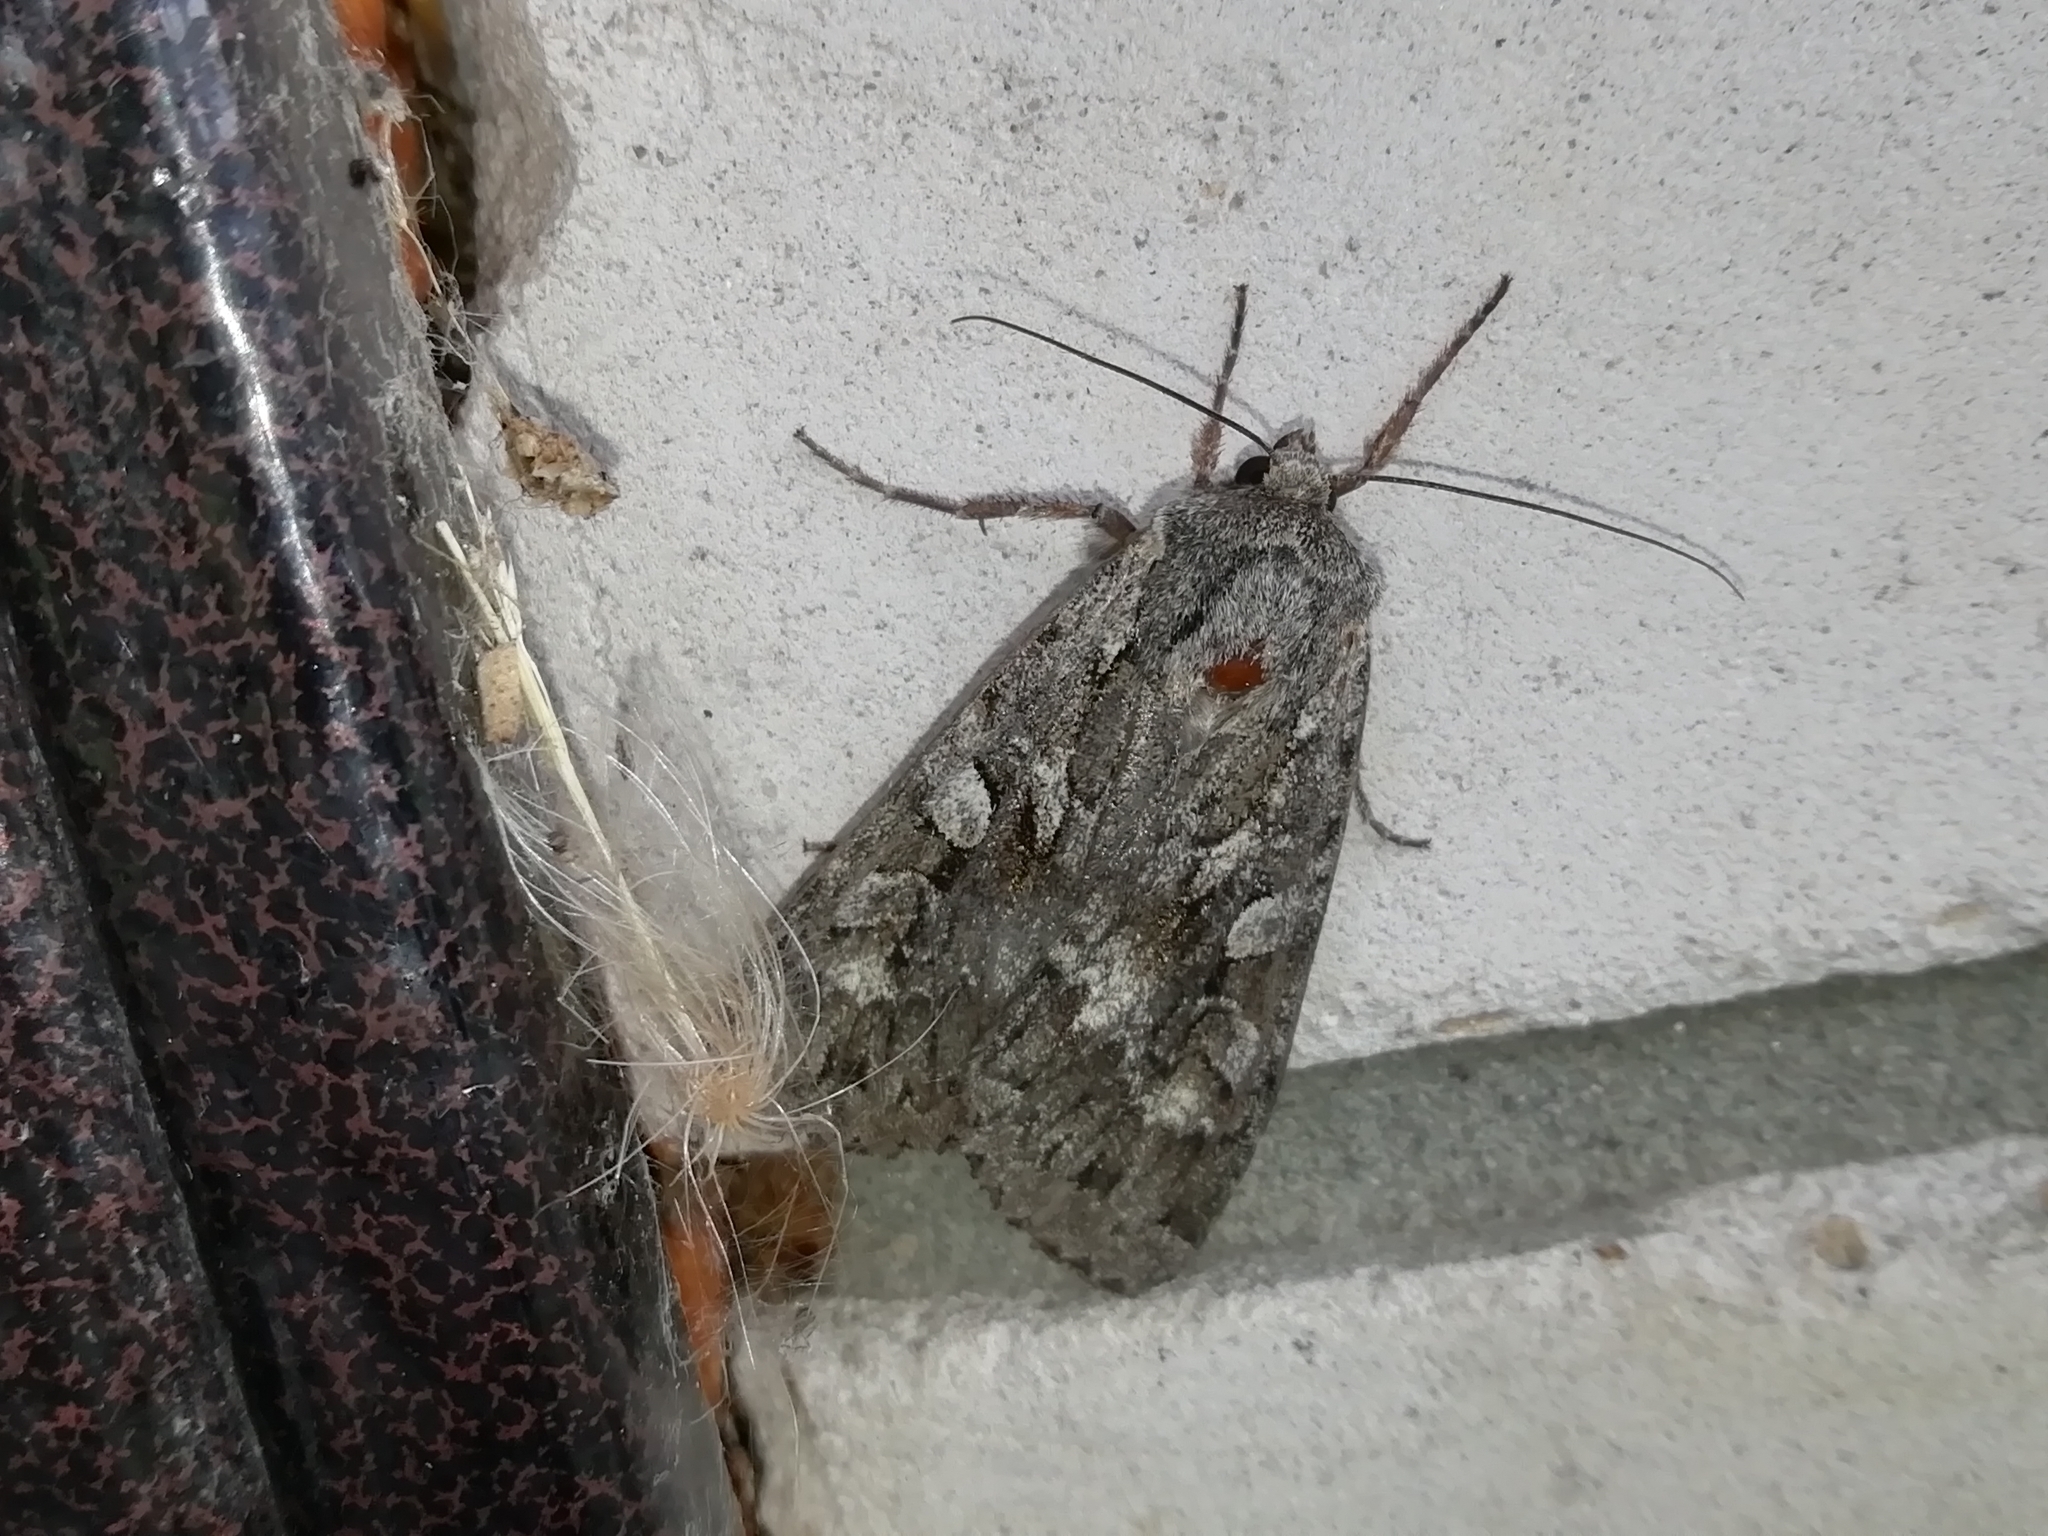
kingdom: Animalia
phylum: Arthropoda
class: Insecta
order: Lepidoptera
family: Noctuidae
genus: Eurois
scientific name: Eurois occulta
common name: Great brocade
